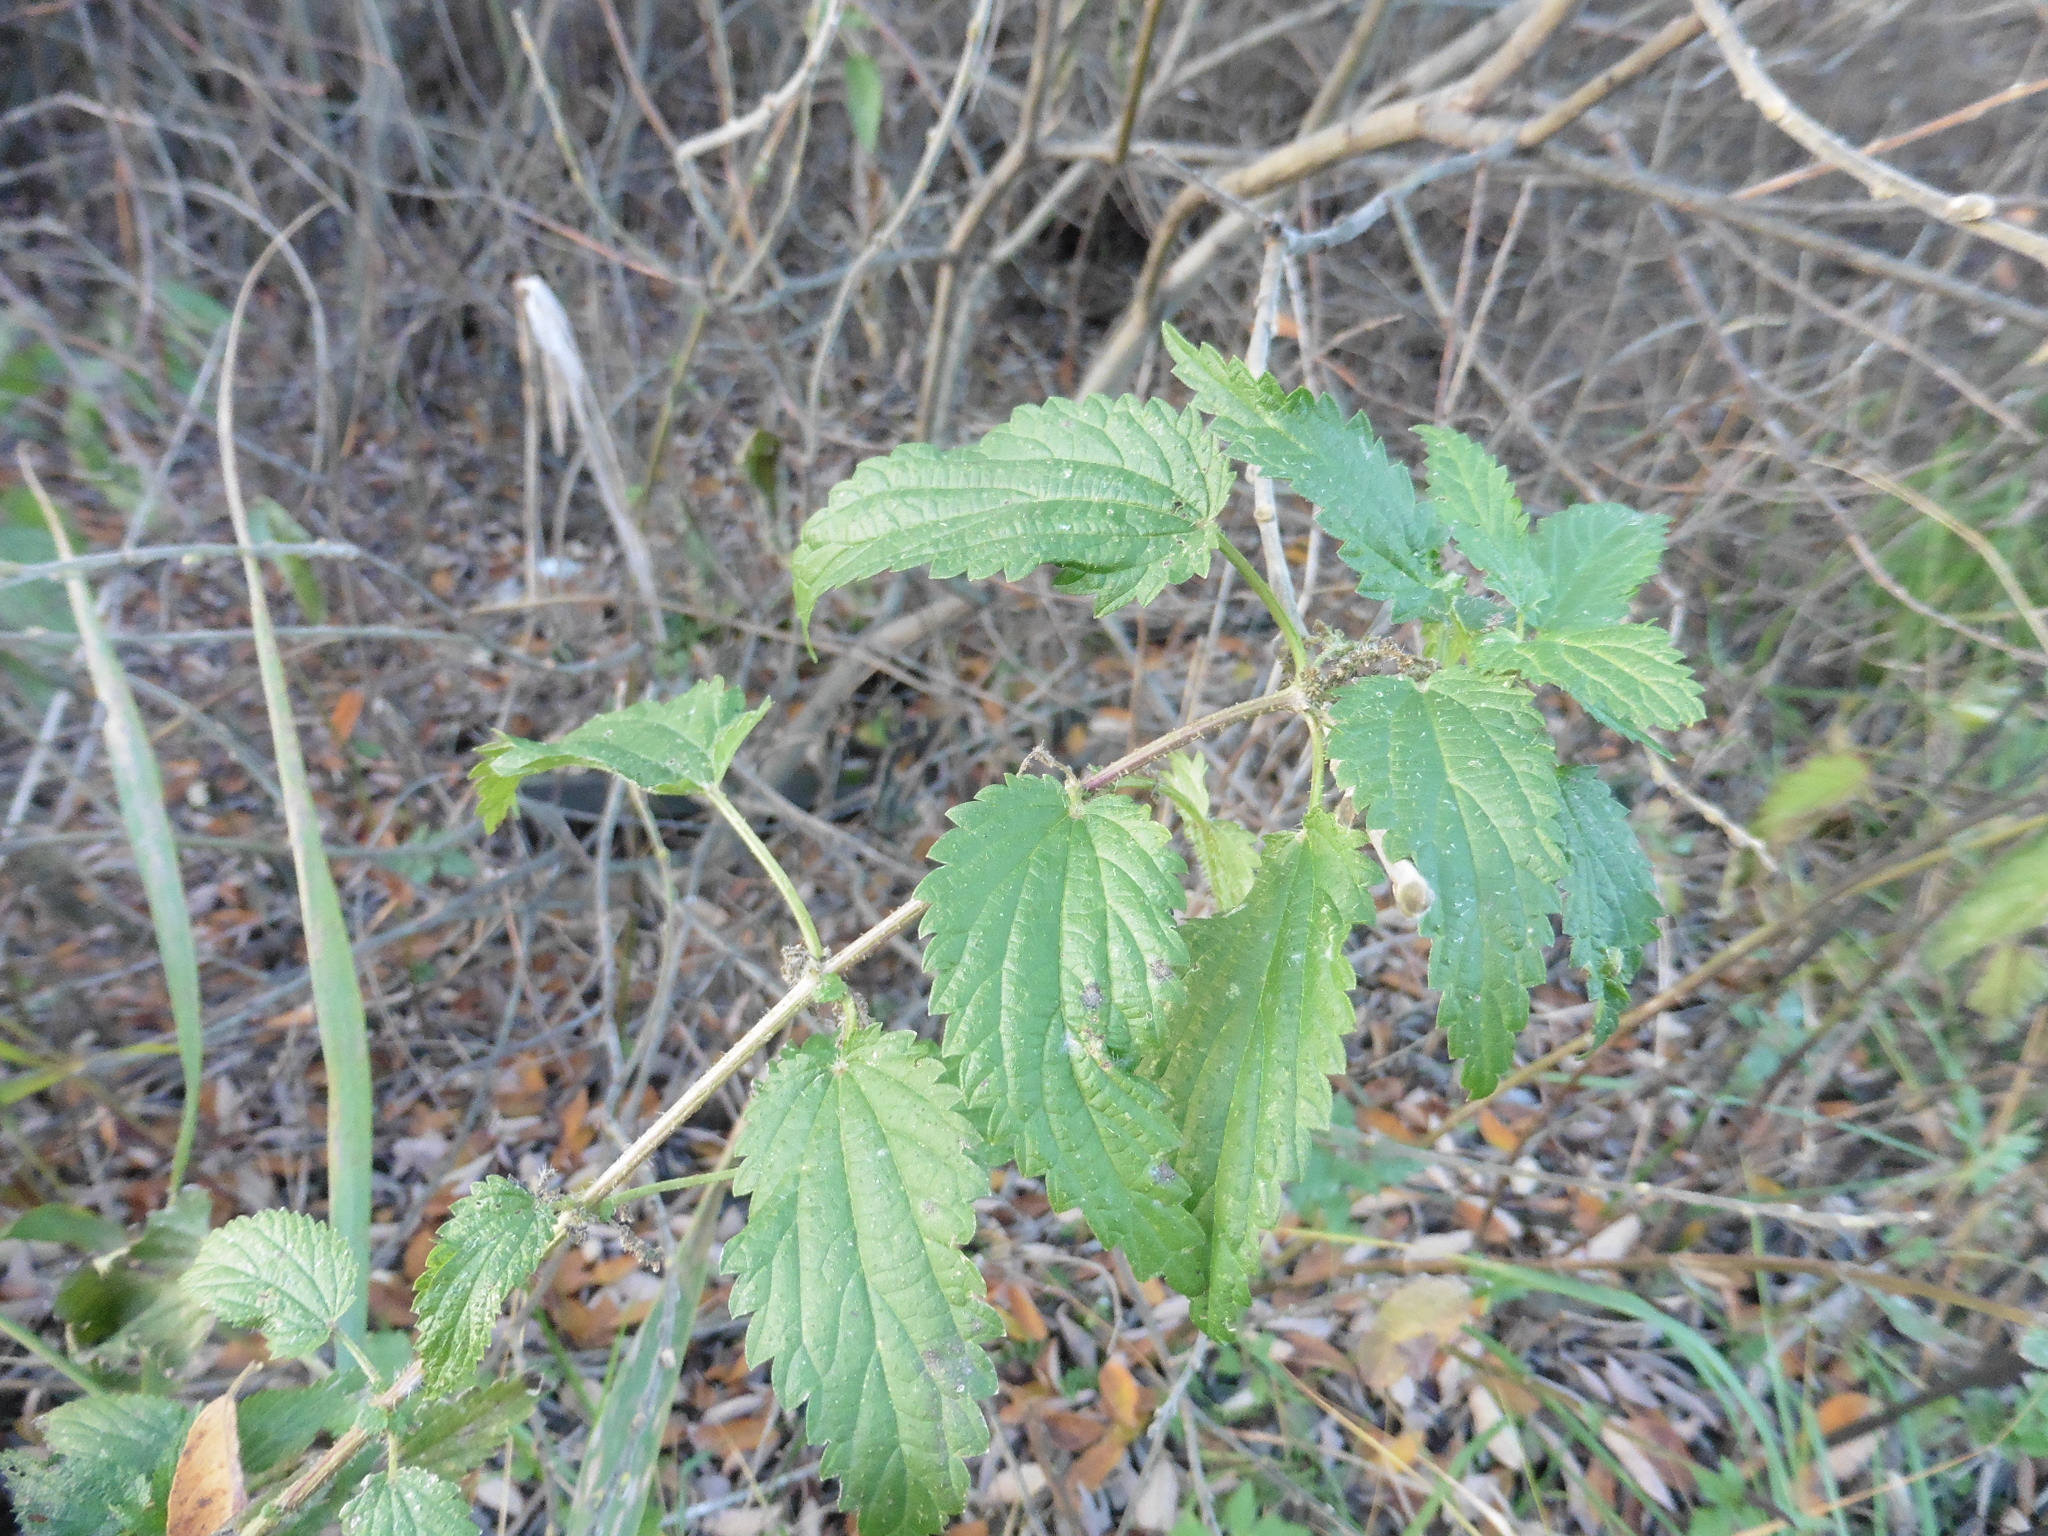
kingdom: Plantae
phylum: Tracheophyta
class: Magnoliopsida
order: Rosales
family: Urticaceae
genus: Urtica
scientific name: Urtica dioica
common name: Common nettle
